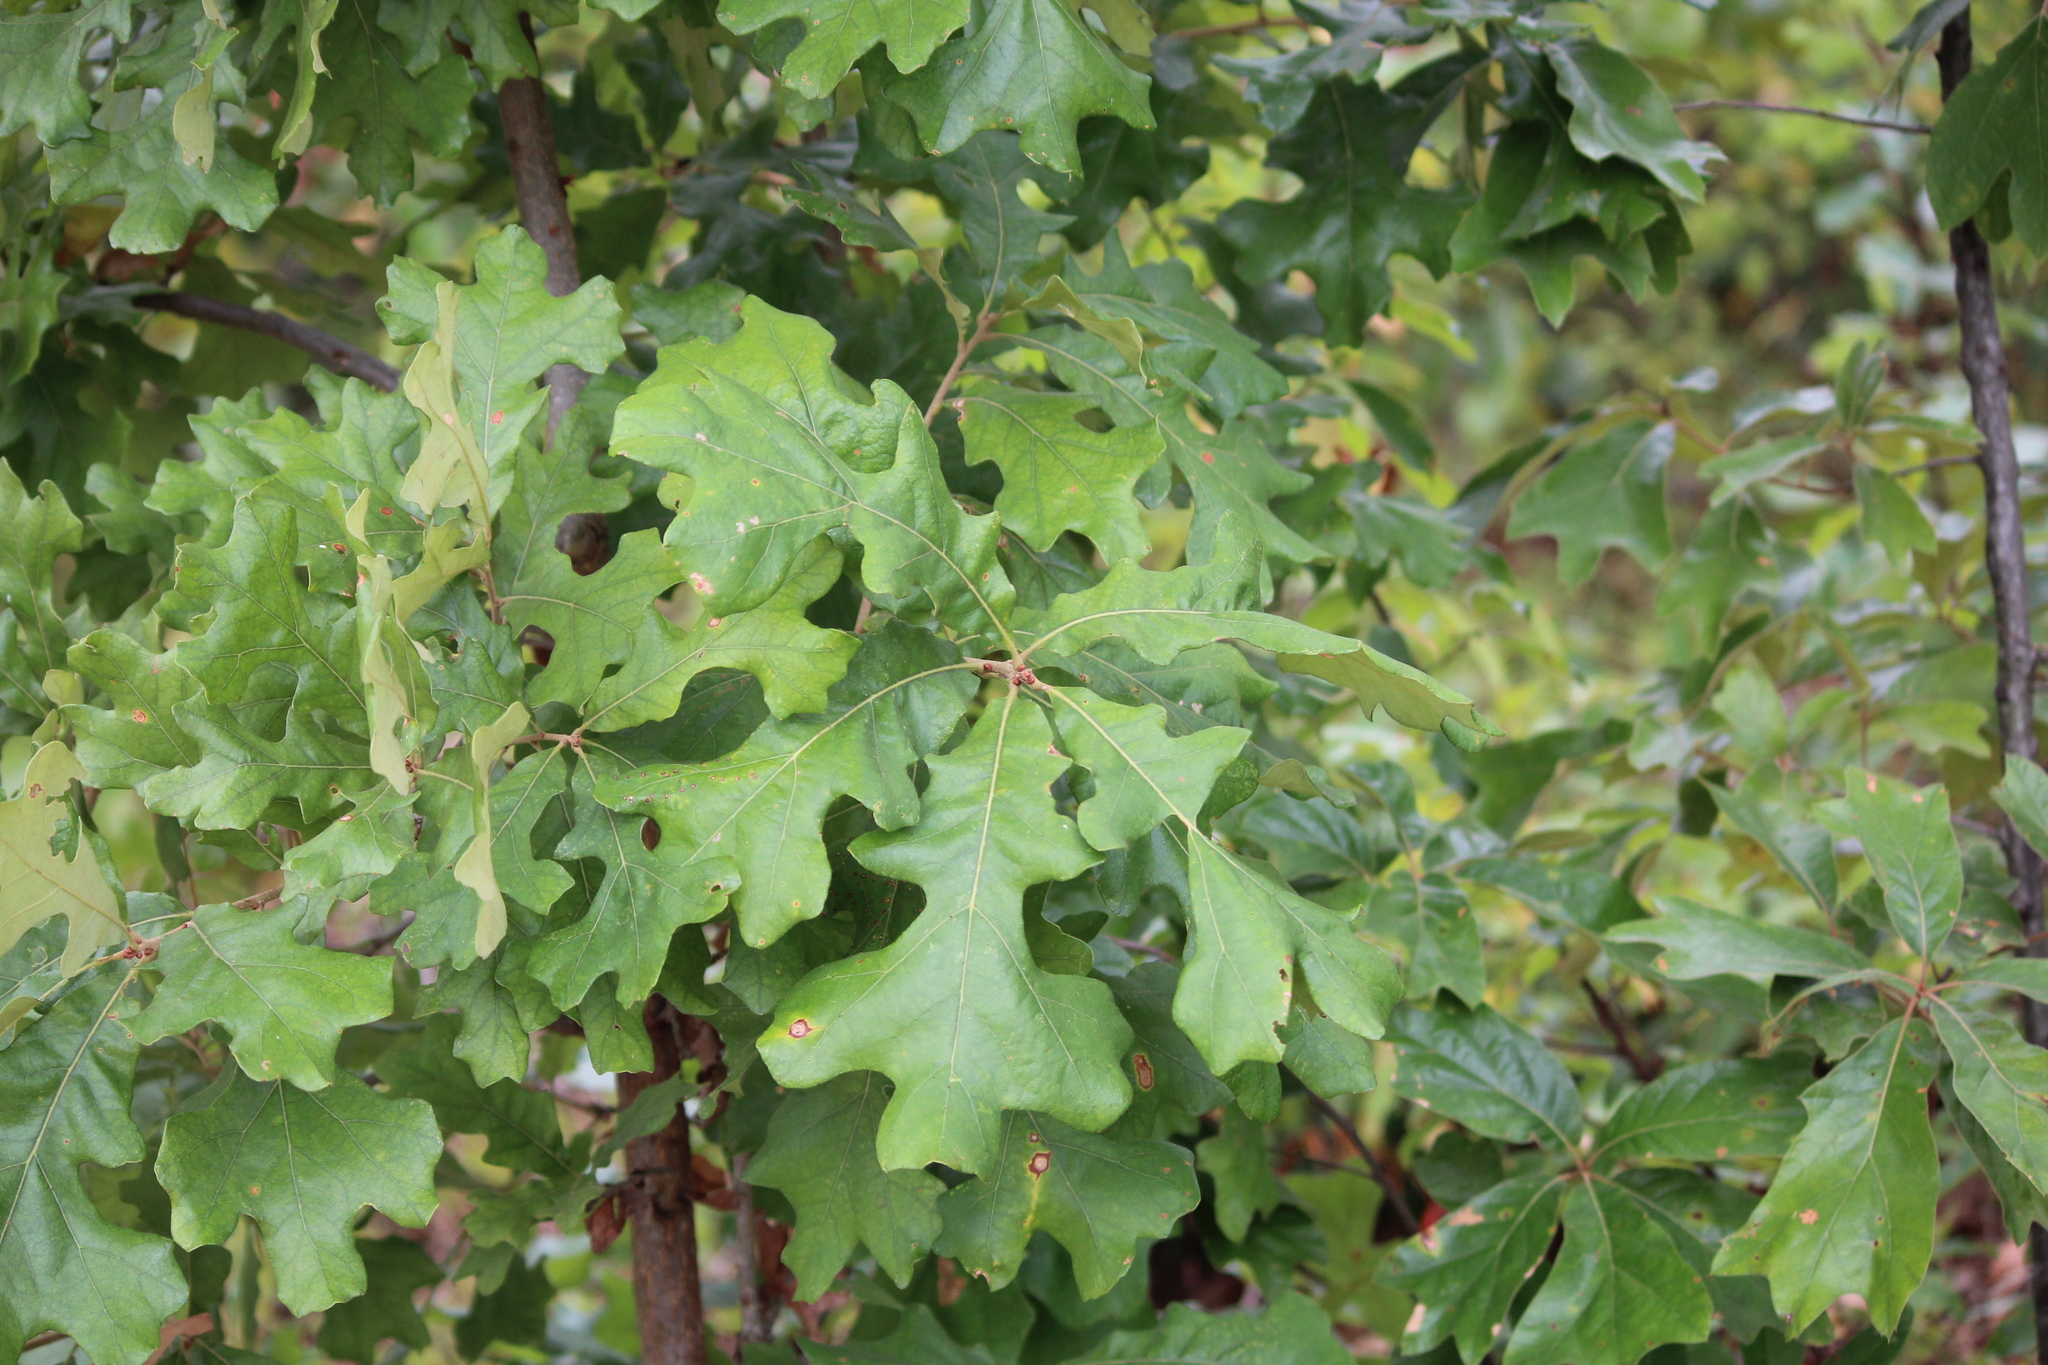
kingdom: Plantae
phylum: Tracheophyta
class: Magnoliopsida
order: Fagales
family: Fagaceae
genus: Quercus
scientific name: Quercus stellata
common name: Post oak
